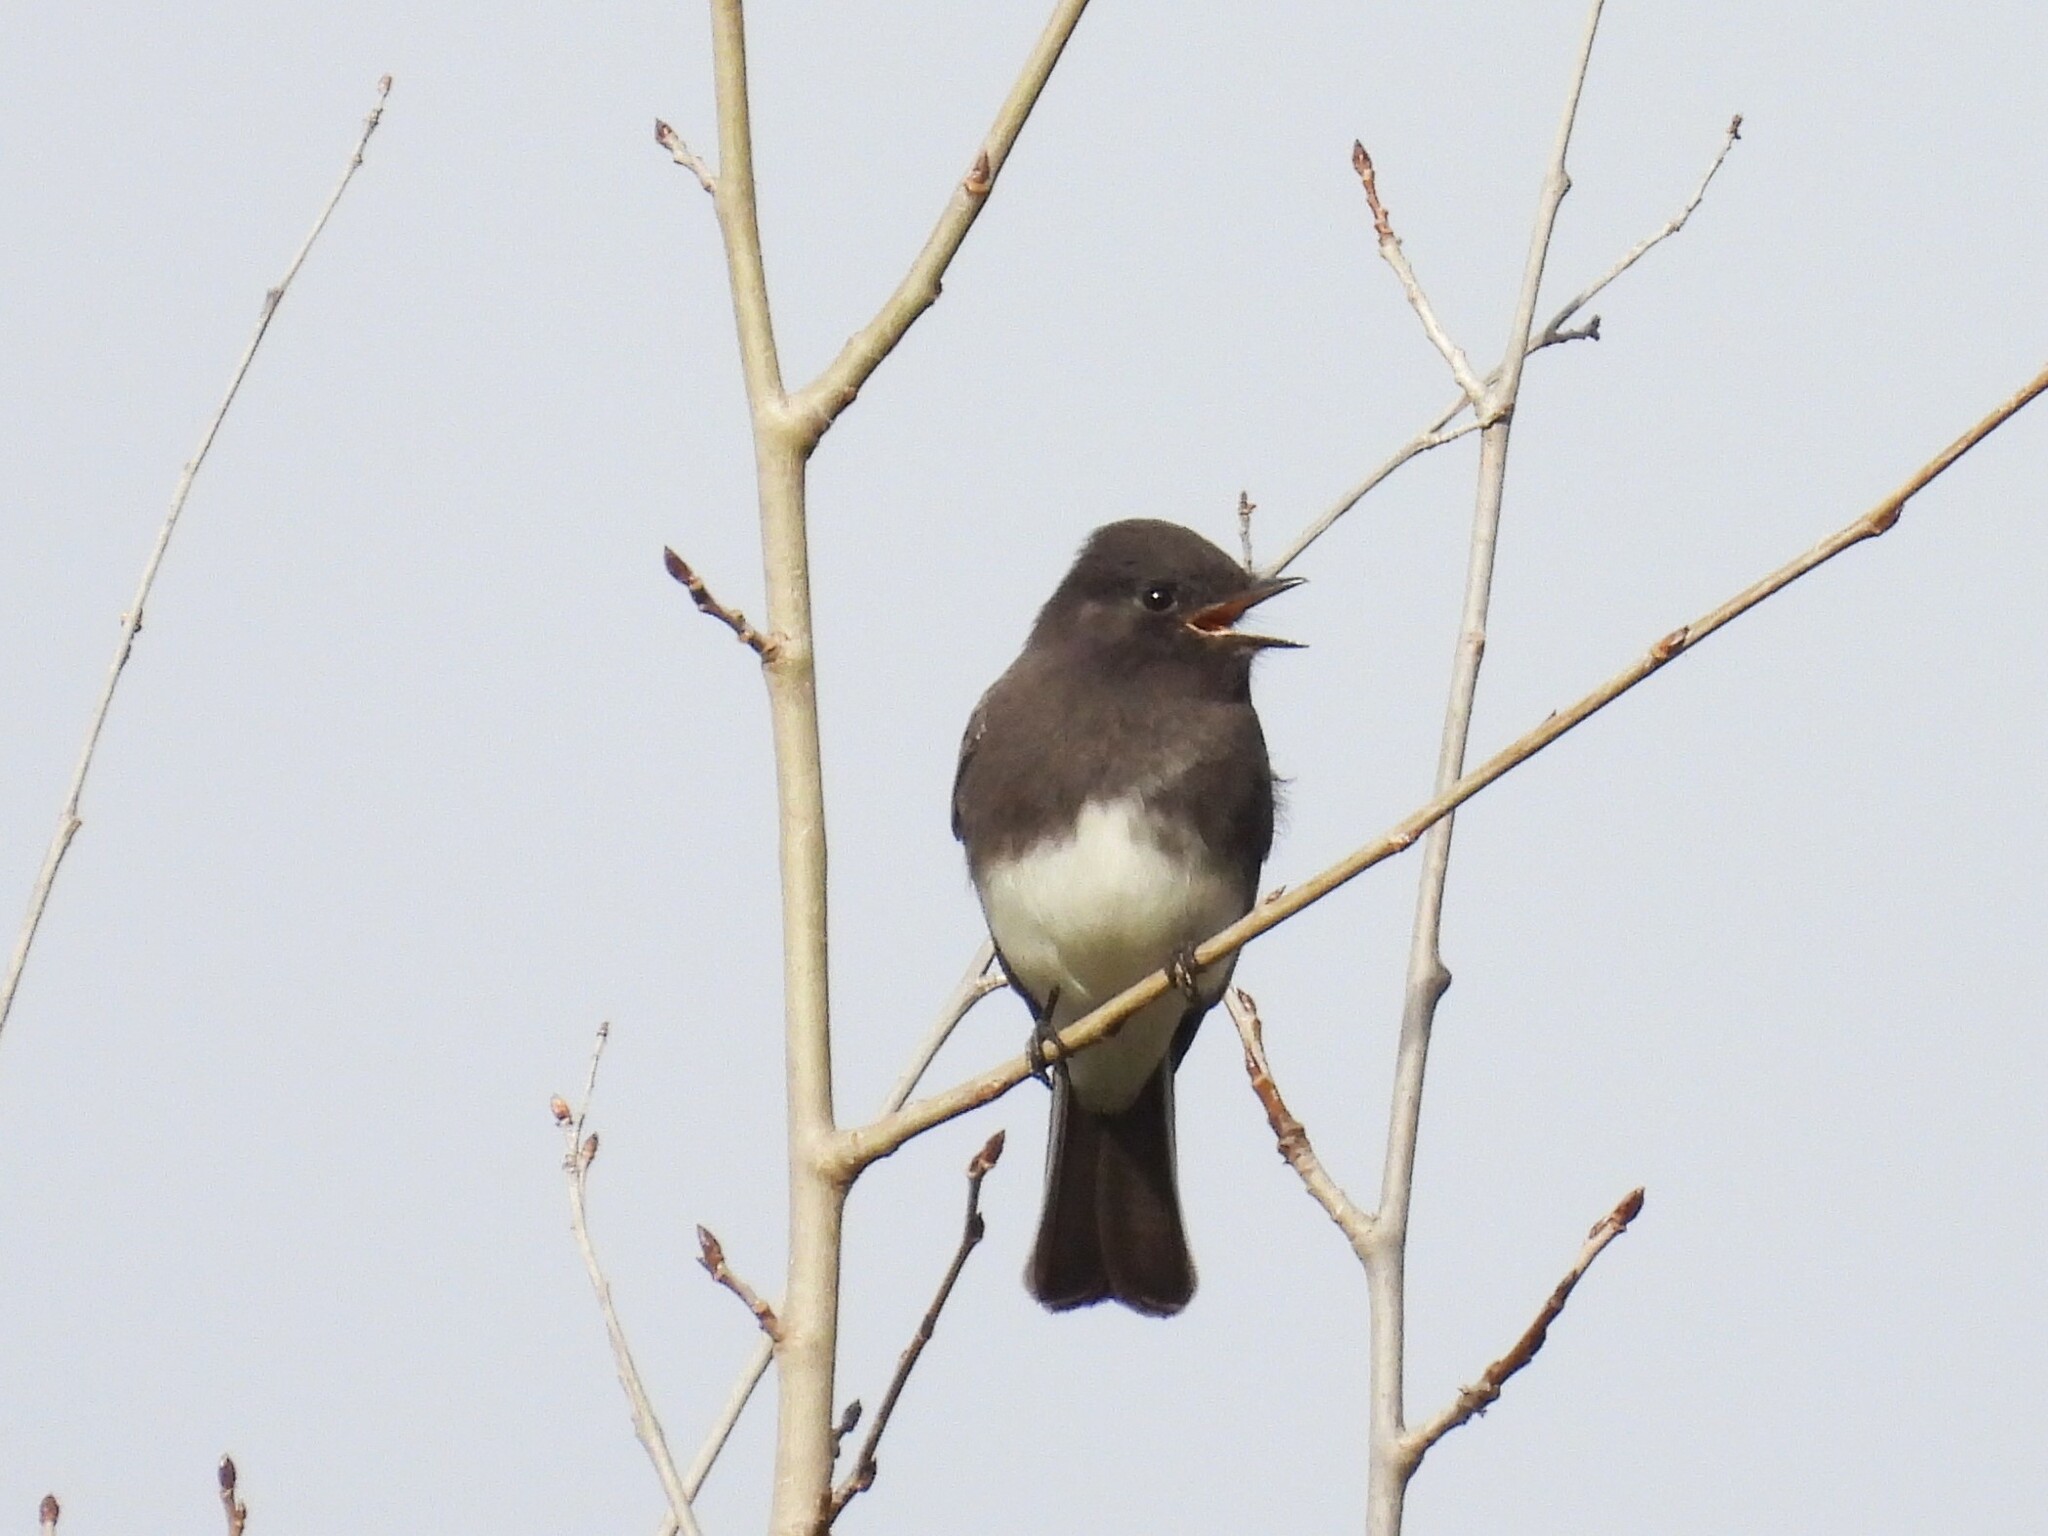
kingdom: Animalia
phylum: Chordata
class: Aves
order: Passeriformes
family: Tyrannidae
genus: Sayornis
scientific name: Sayornis nigricans
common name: Black phoebe
